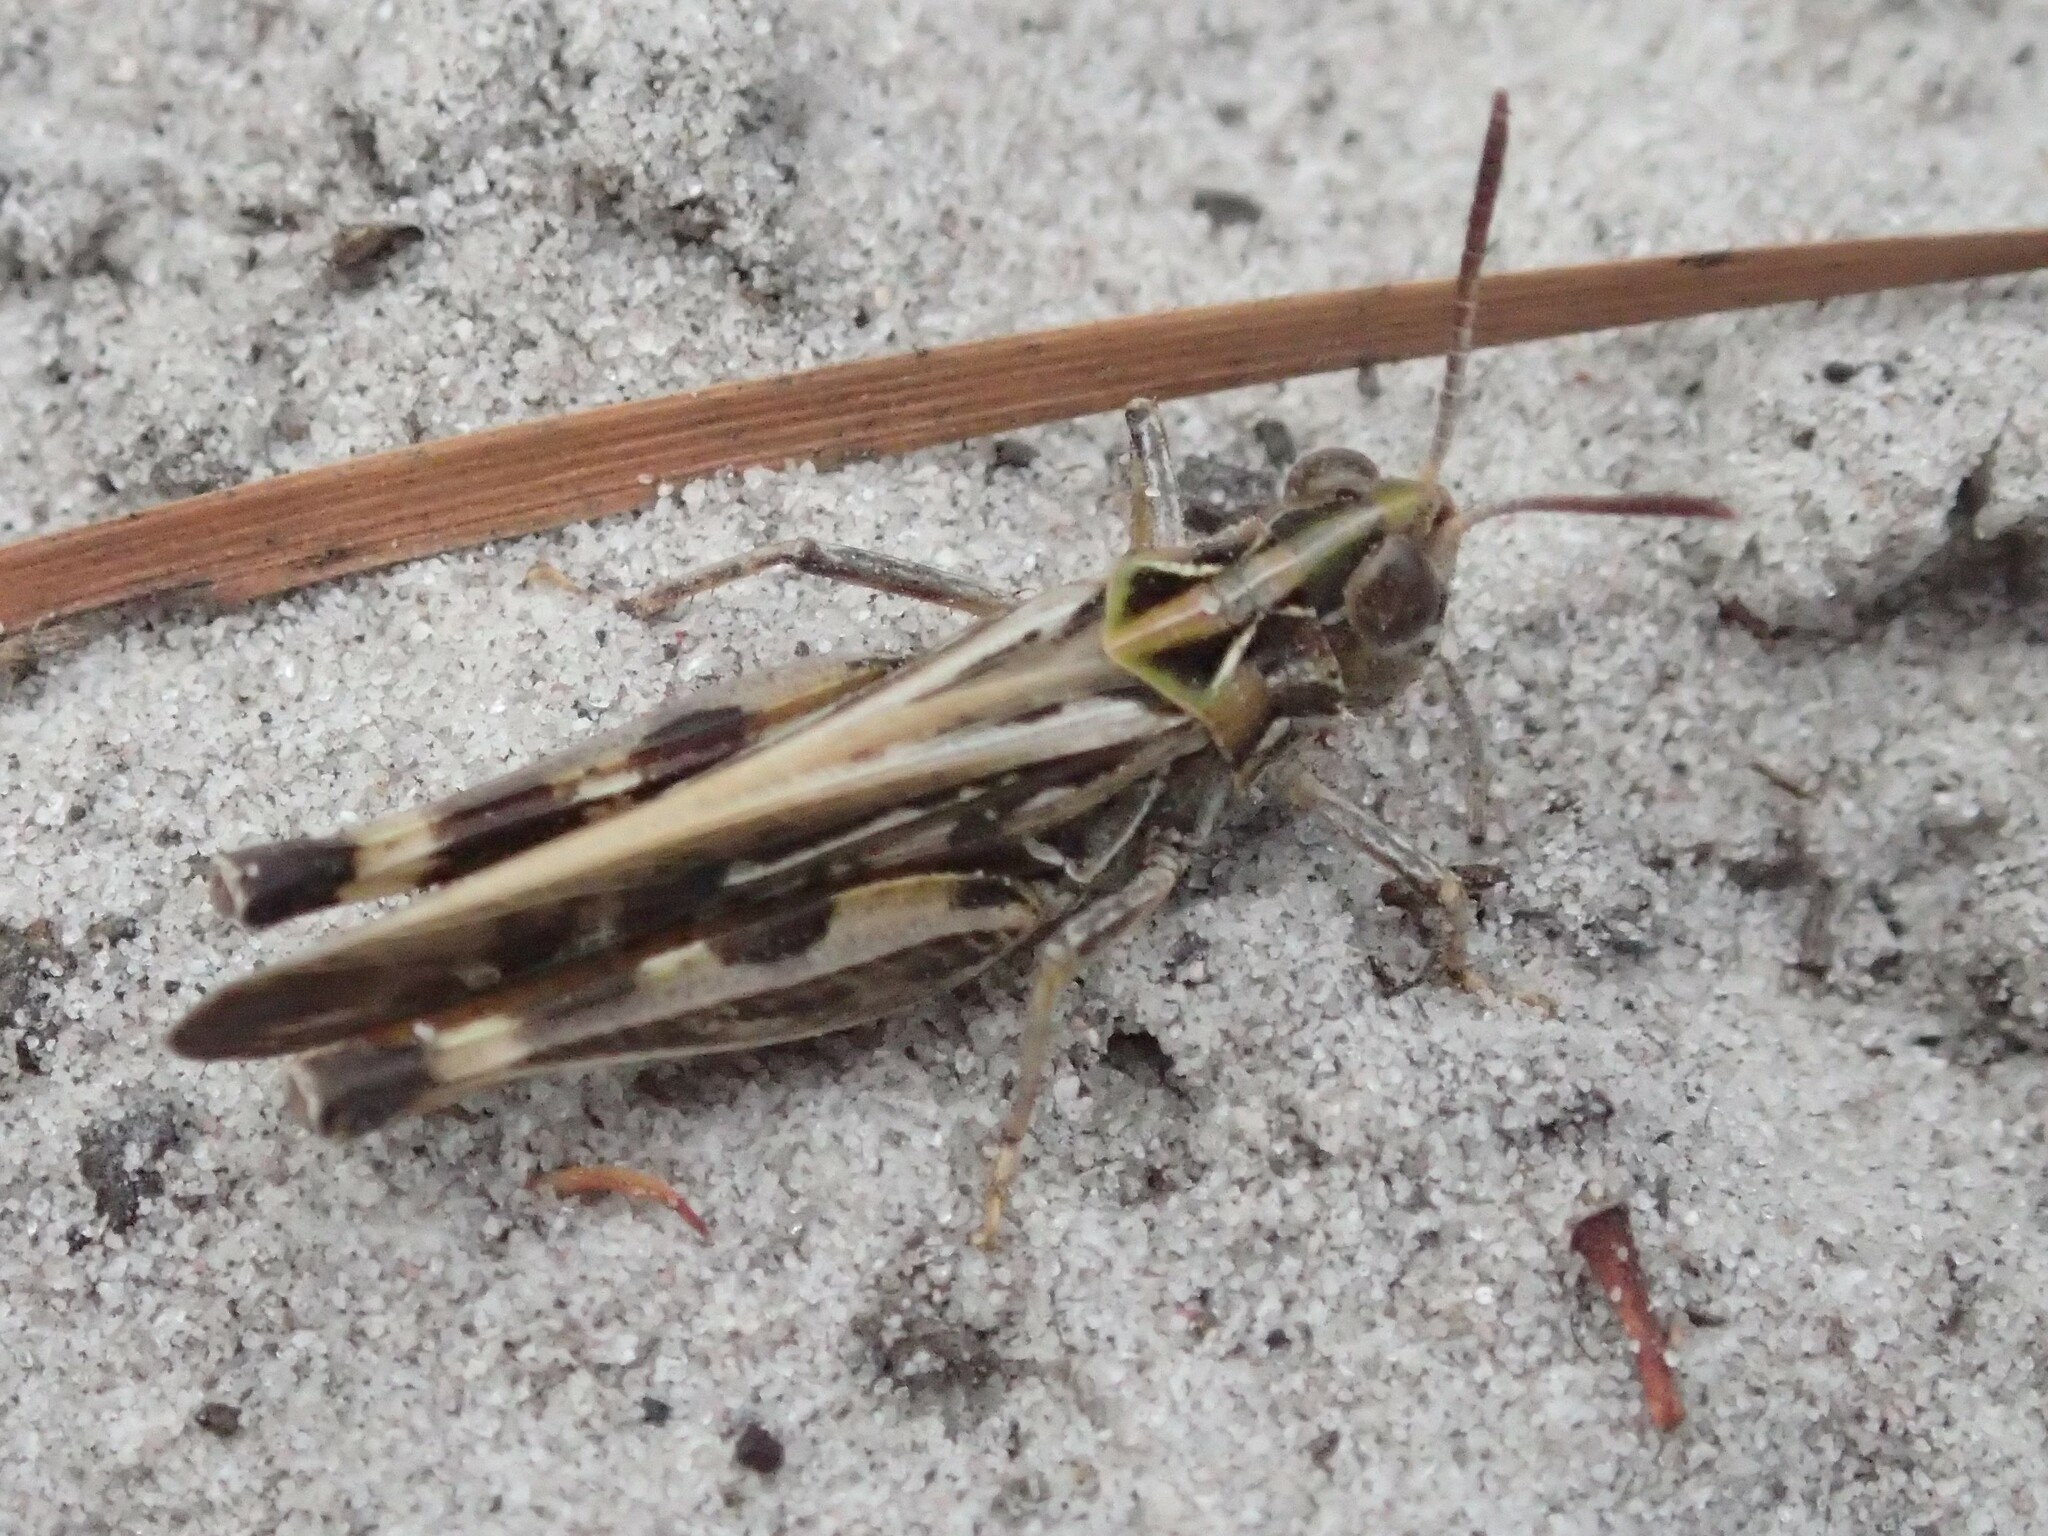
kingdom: Animalia
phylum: Arthropoda
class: Insecta
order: Orthoptera
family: Acrididae
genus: Austroicetes
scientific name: Austroicetes vulgaris
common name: Southeastern austroicetes
